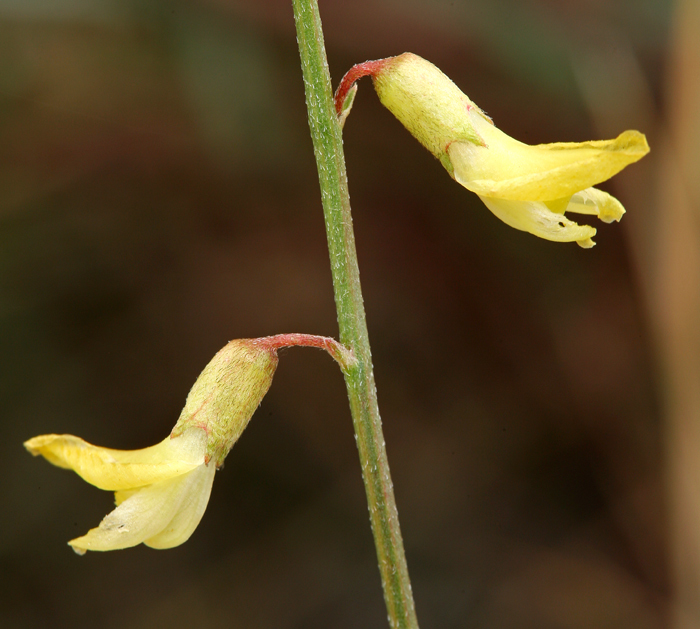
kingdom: Plantae
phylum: Tracheophyta
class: Magnoliopsida
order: Fabales
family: Fabaceae
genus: Astragalus
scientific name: Astragalus filipes
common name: Basalt milk-vetch
